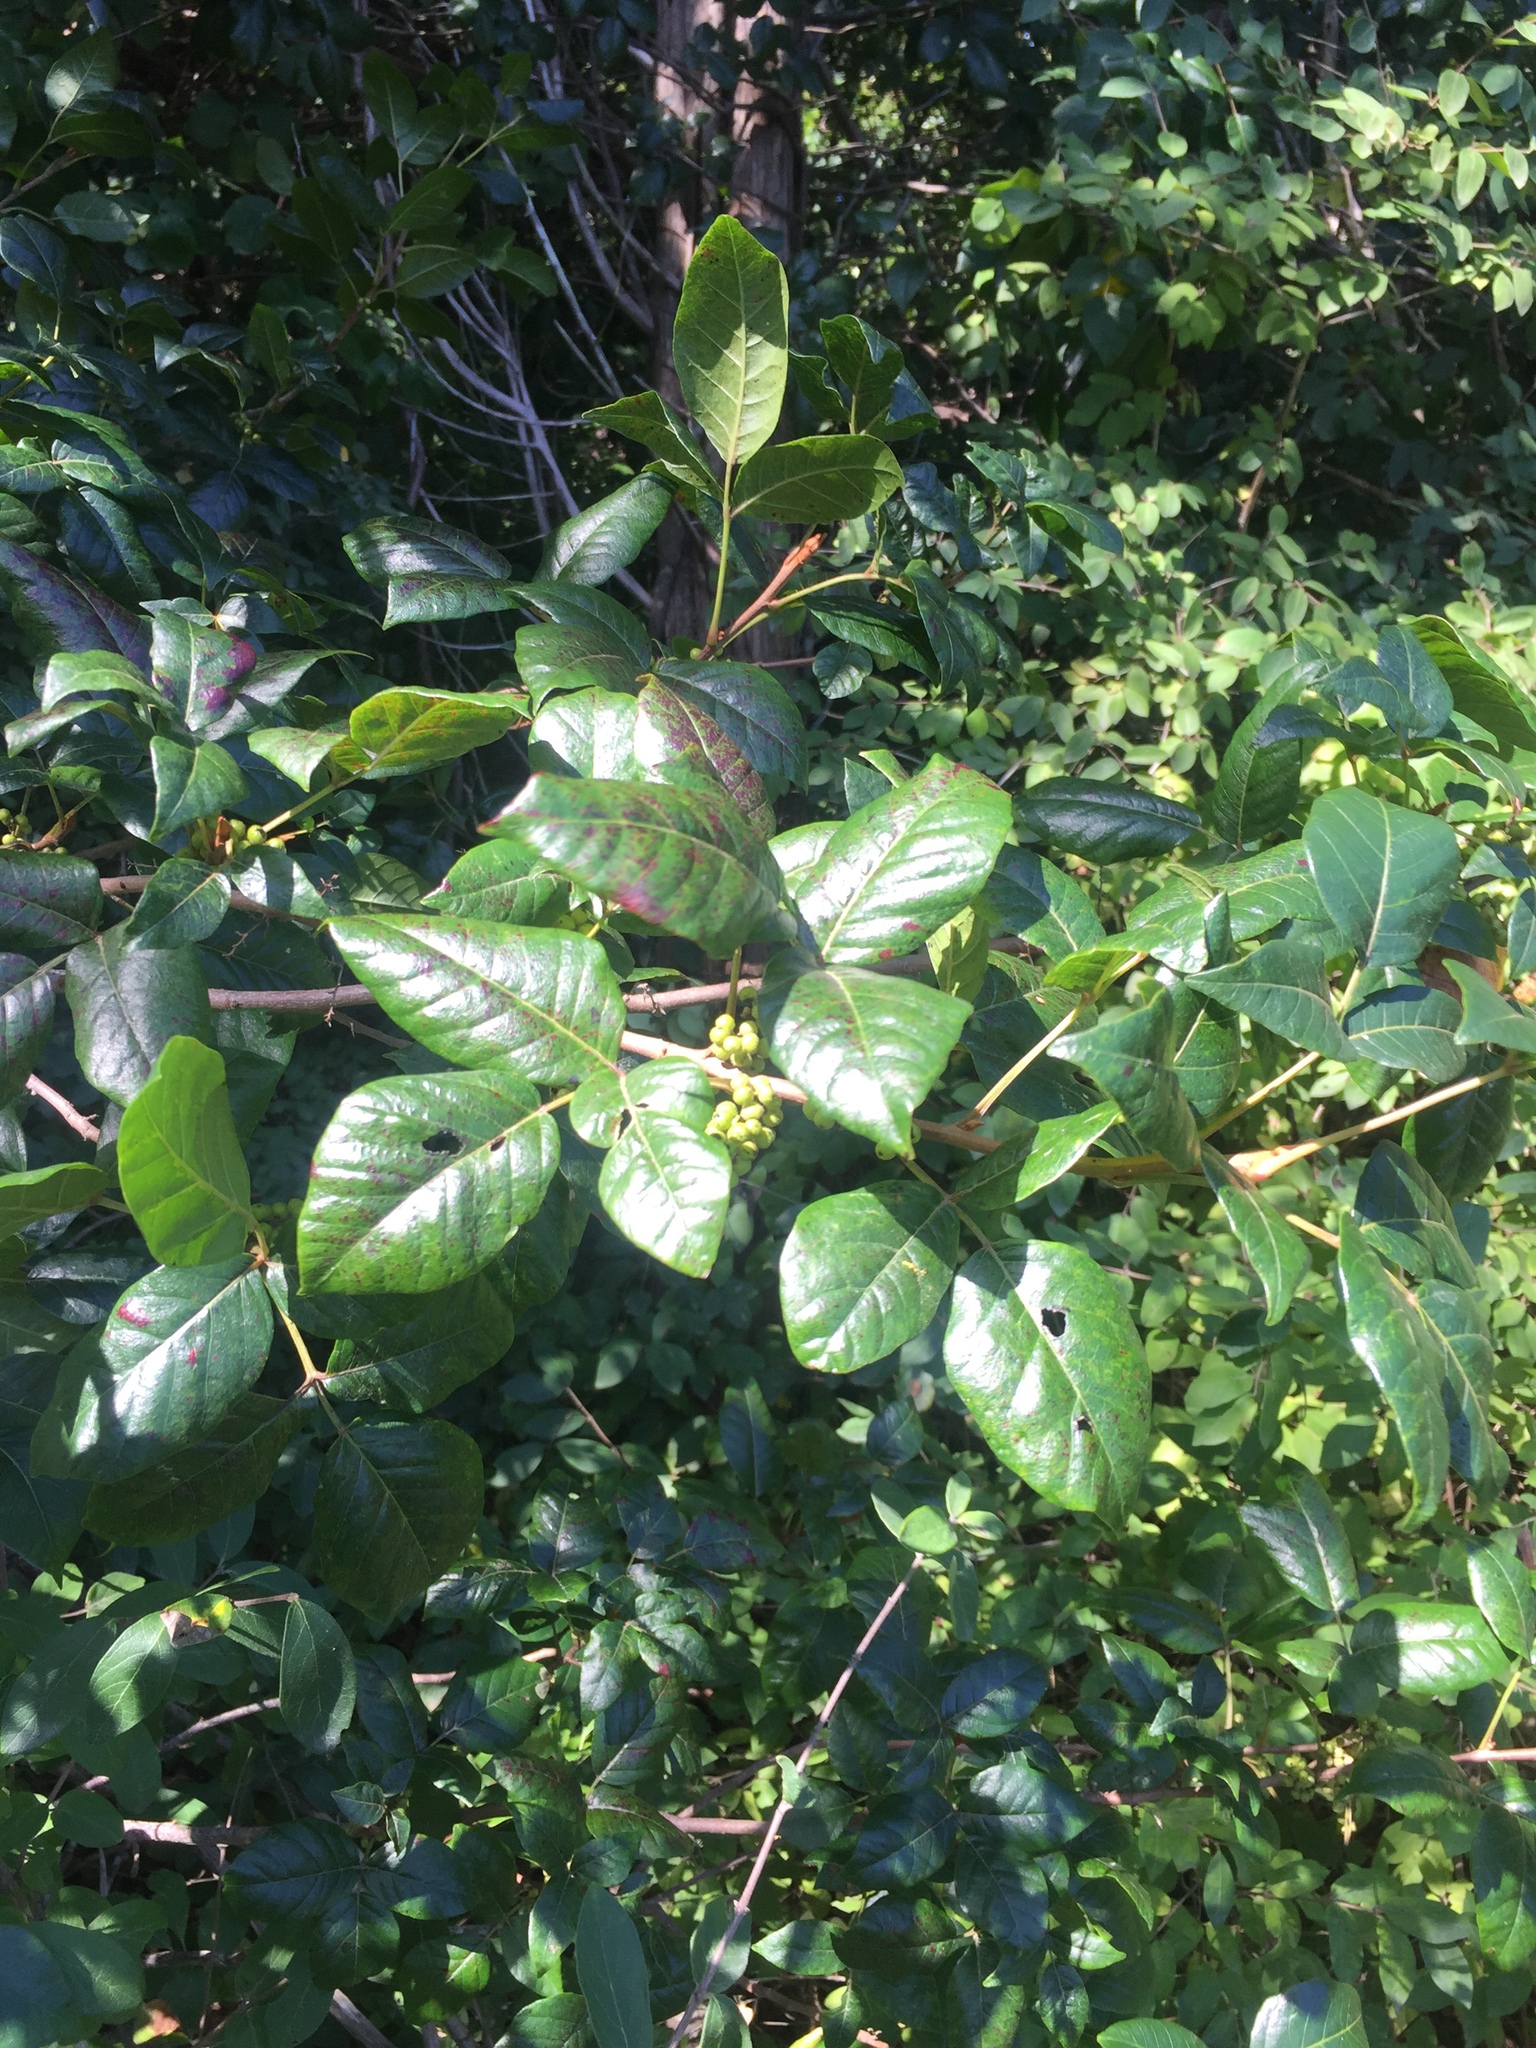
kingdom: Plantae
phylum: Tracheophyta
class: Magnoliopsida
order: Sapindales
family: Anacardiaceae
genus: Toxicodendron
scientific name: Toxicodendron radicans
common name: Poison ivy
